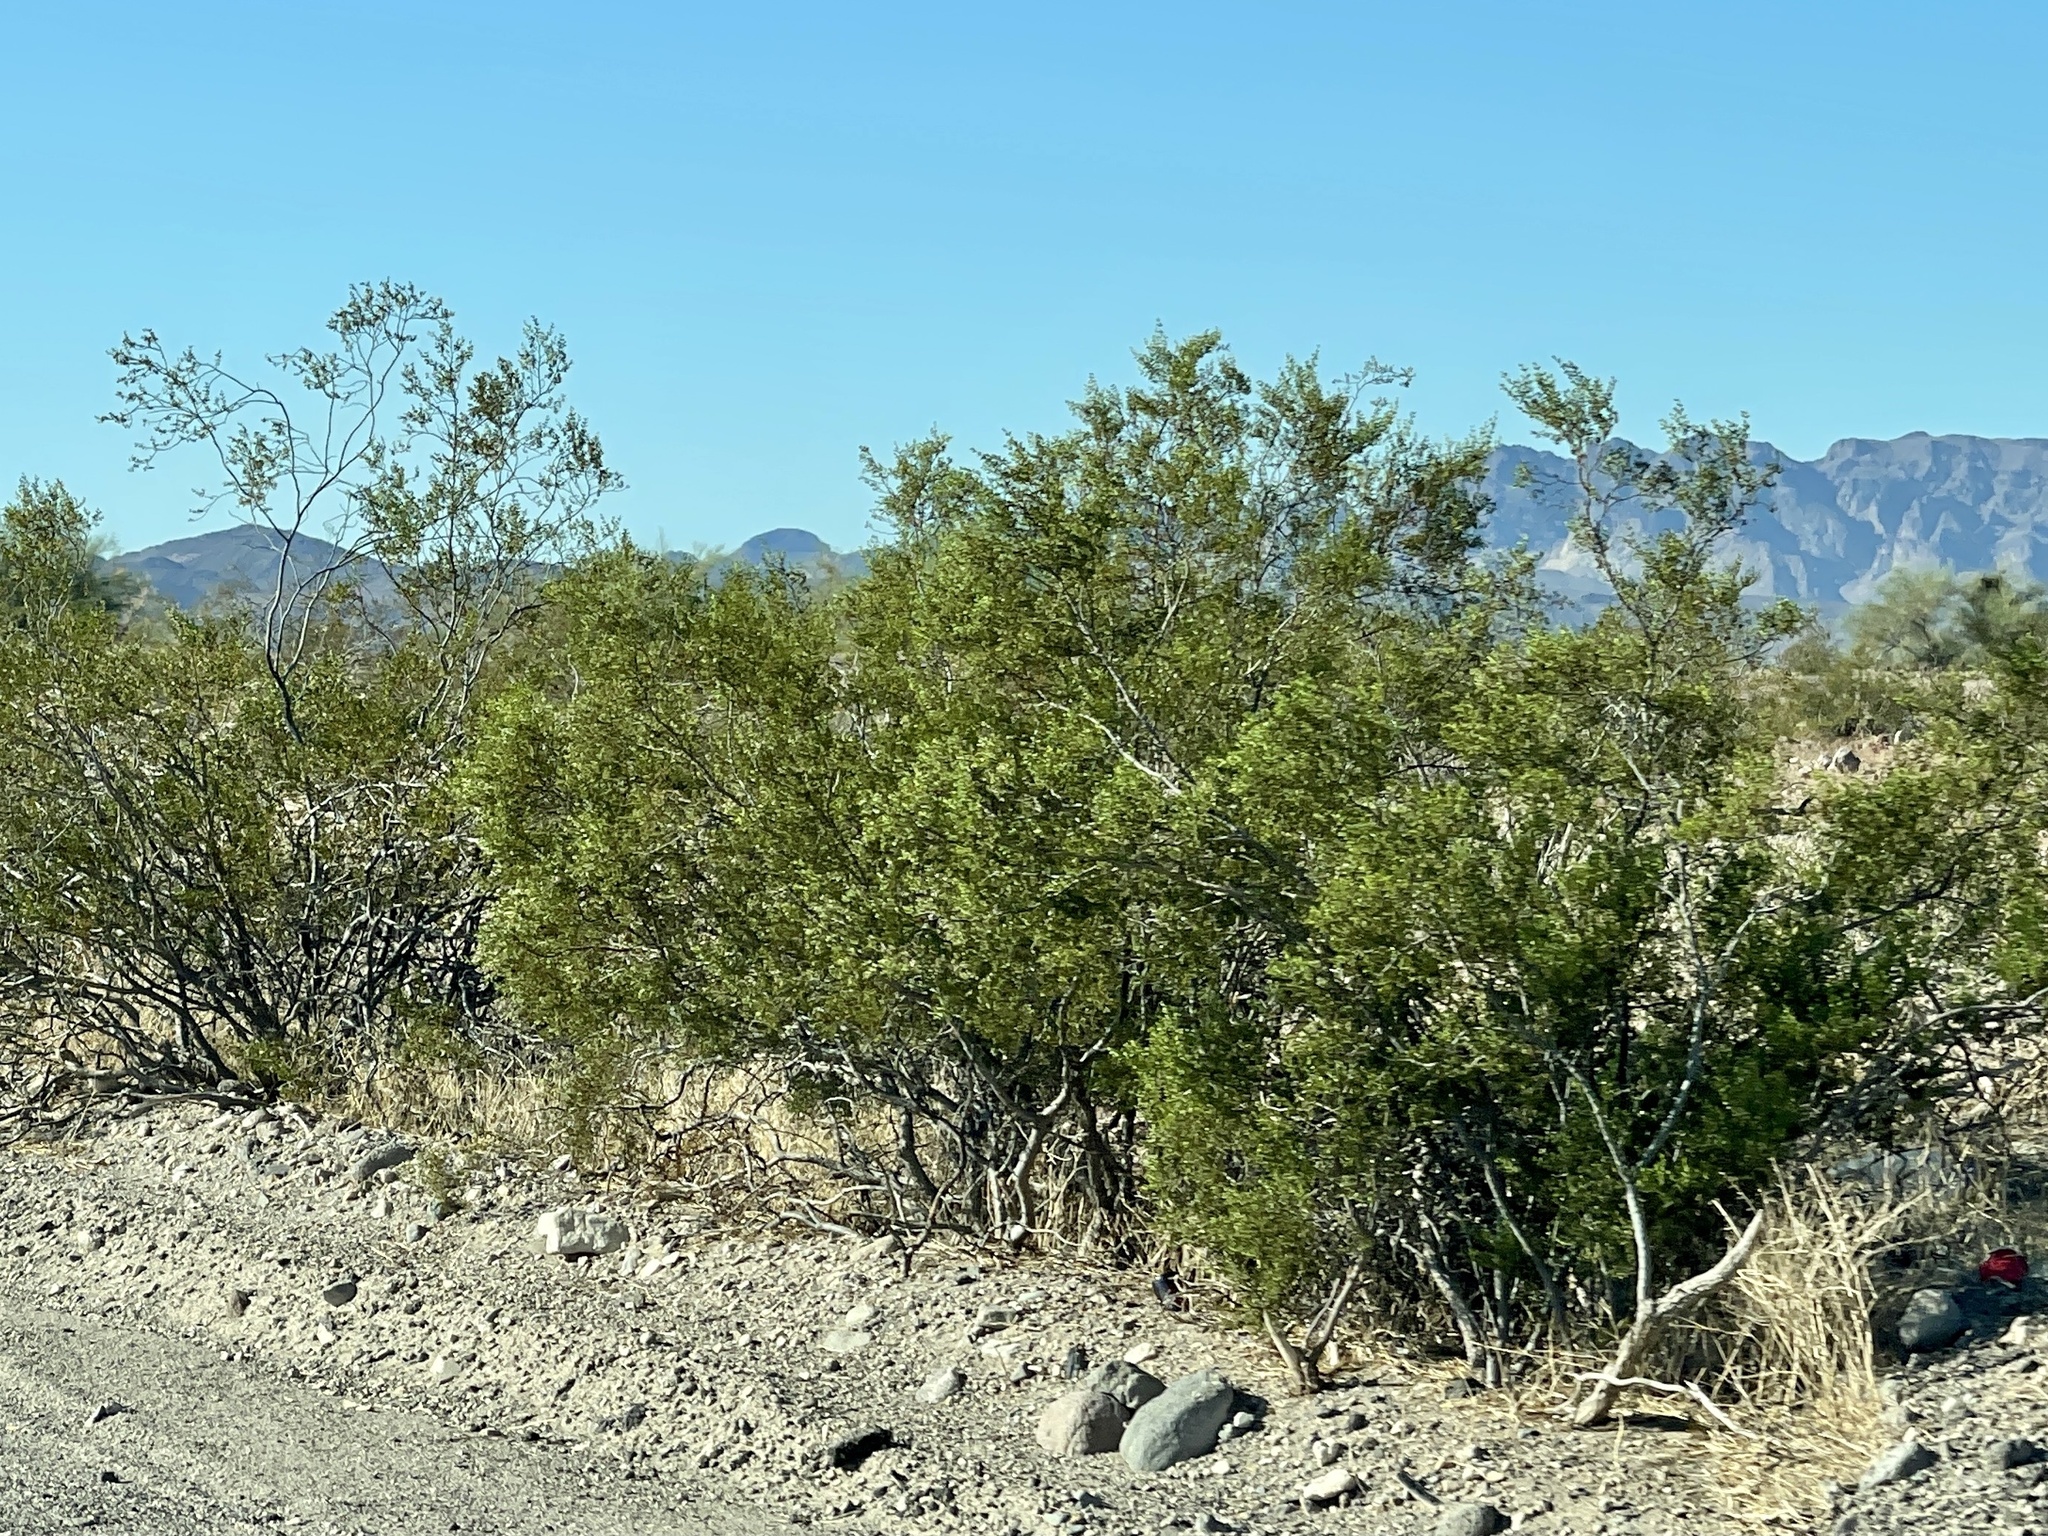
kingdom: Plantae
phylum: Tracheophyta
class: Magnoliopsida
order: Zygophyllales
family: Zygophyllaceae
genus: Larrea
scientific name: Larrea tridentata
